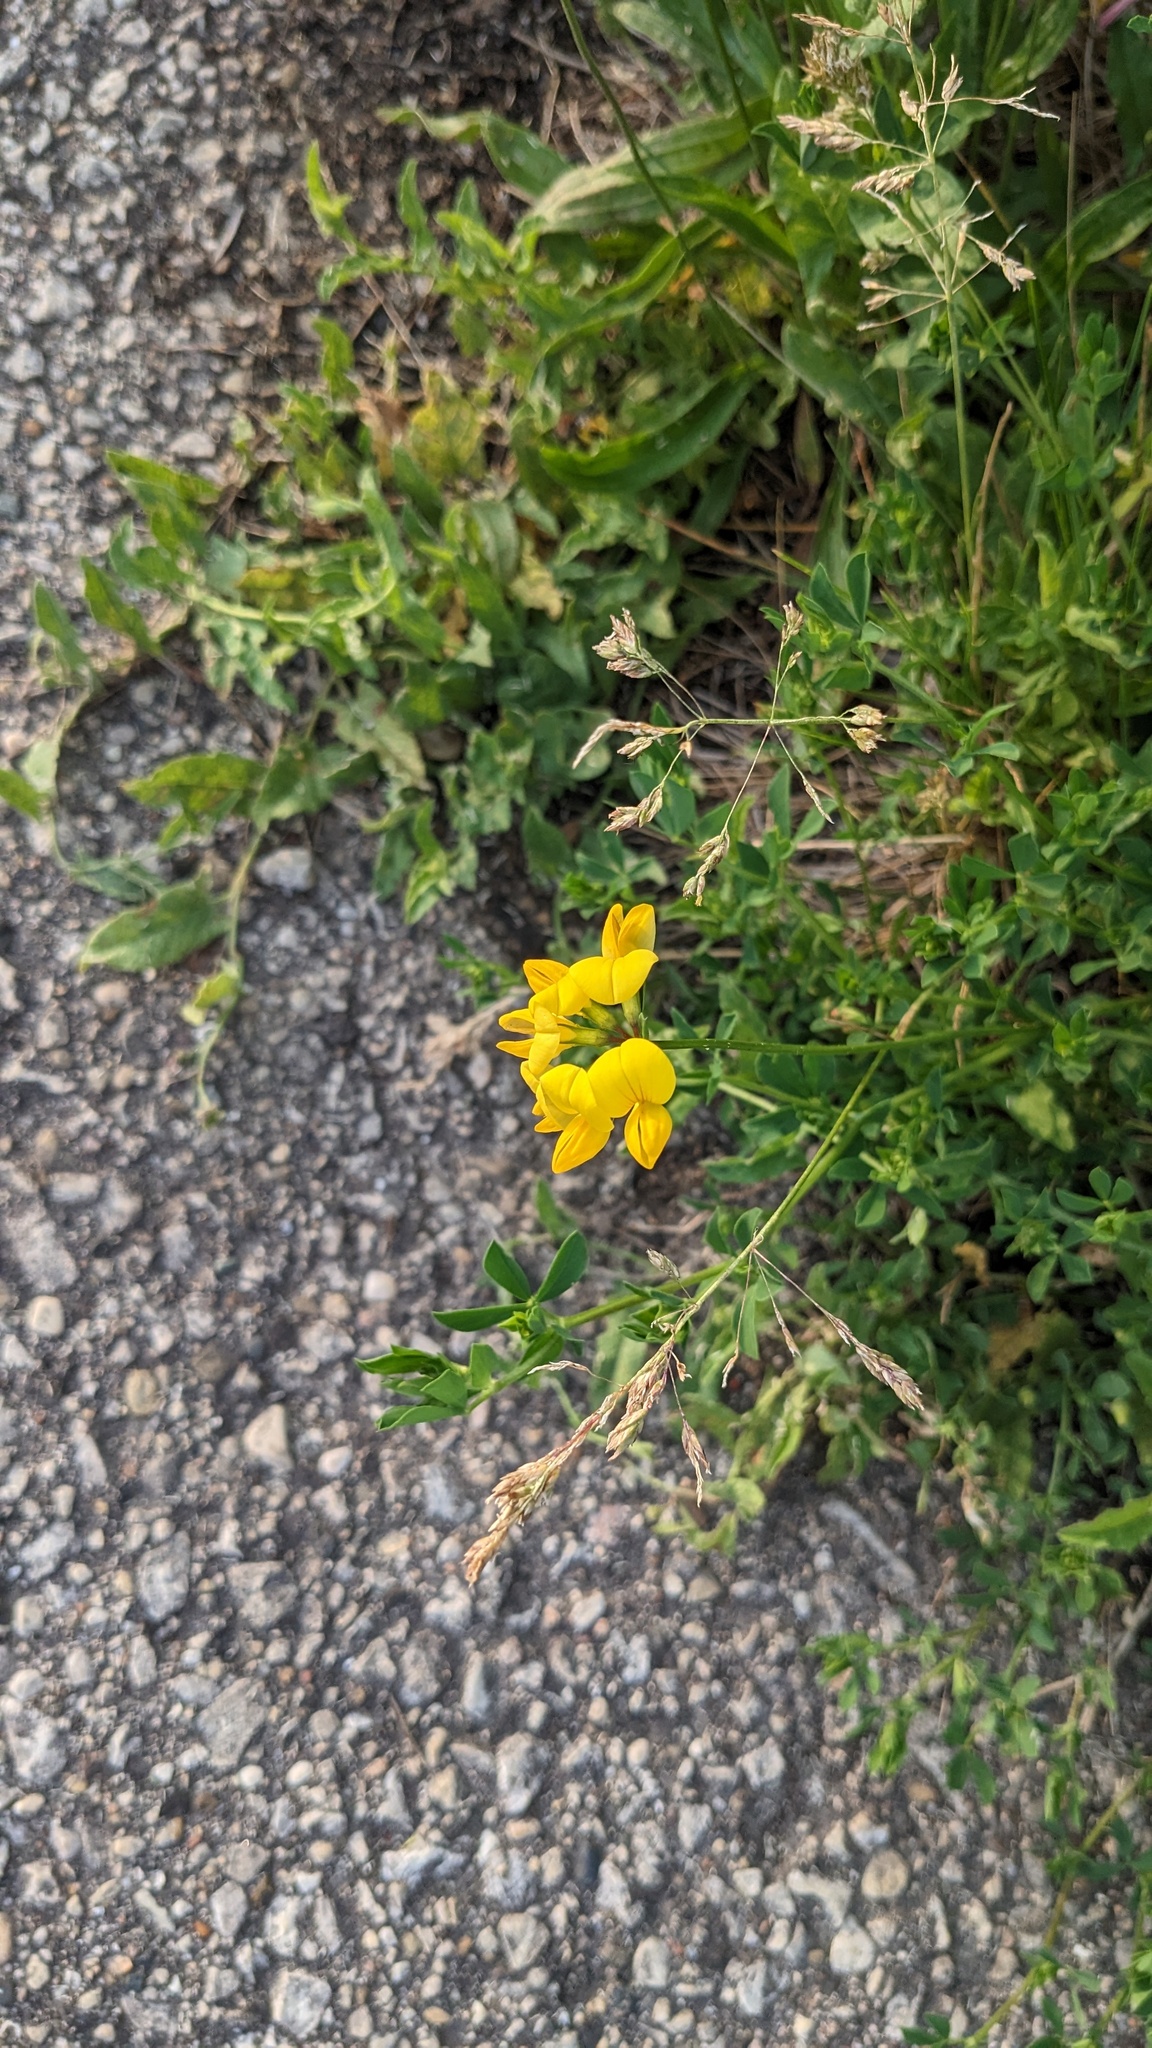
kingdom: Plantae
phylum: Tracheophyta
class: Magnoliopsida
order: Fabales
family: Fabaceae
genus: Lotus
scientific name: Lotus corniculatus
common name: Common bird's-foot-trefoil
